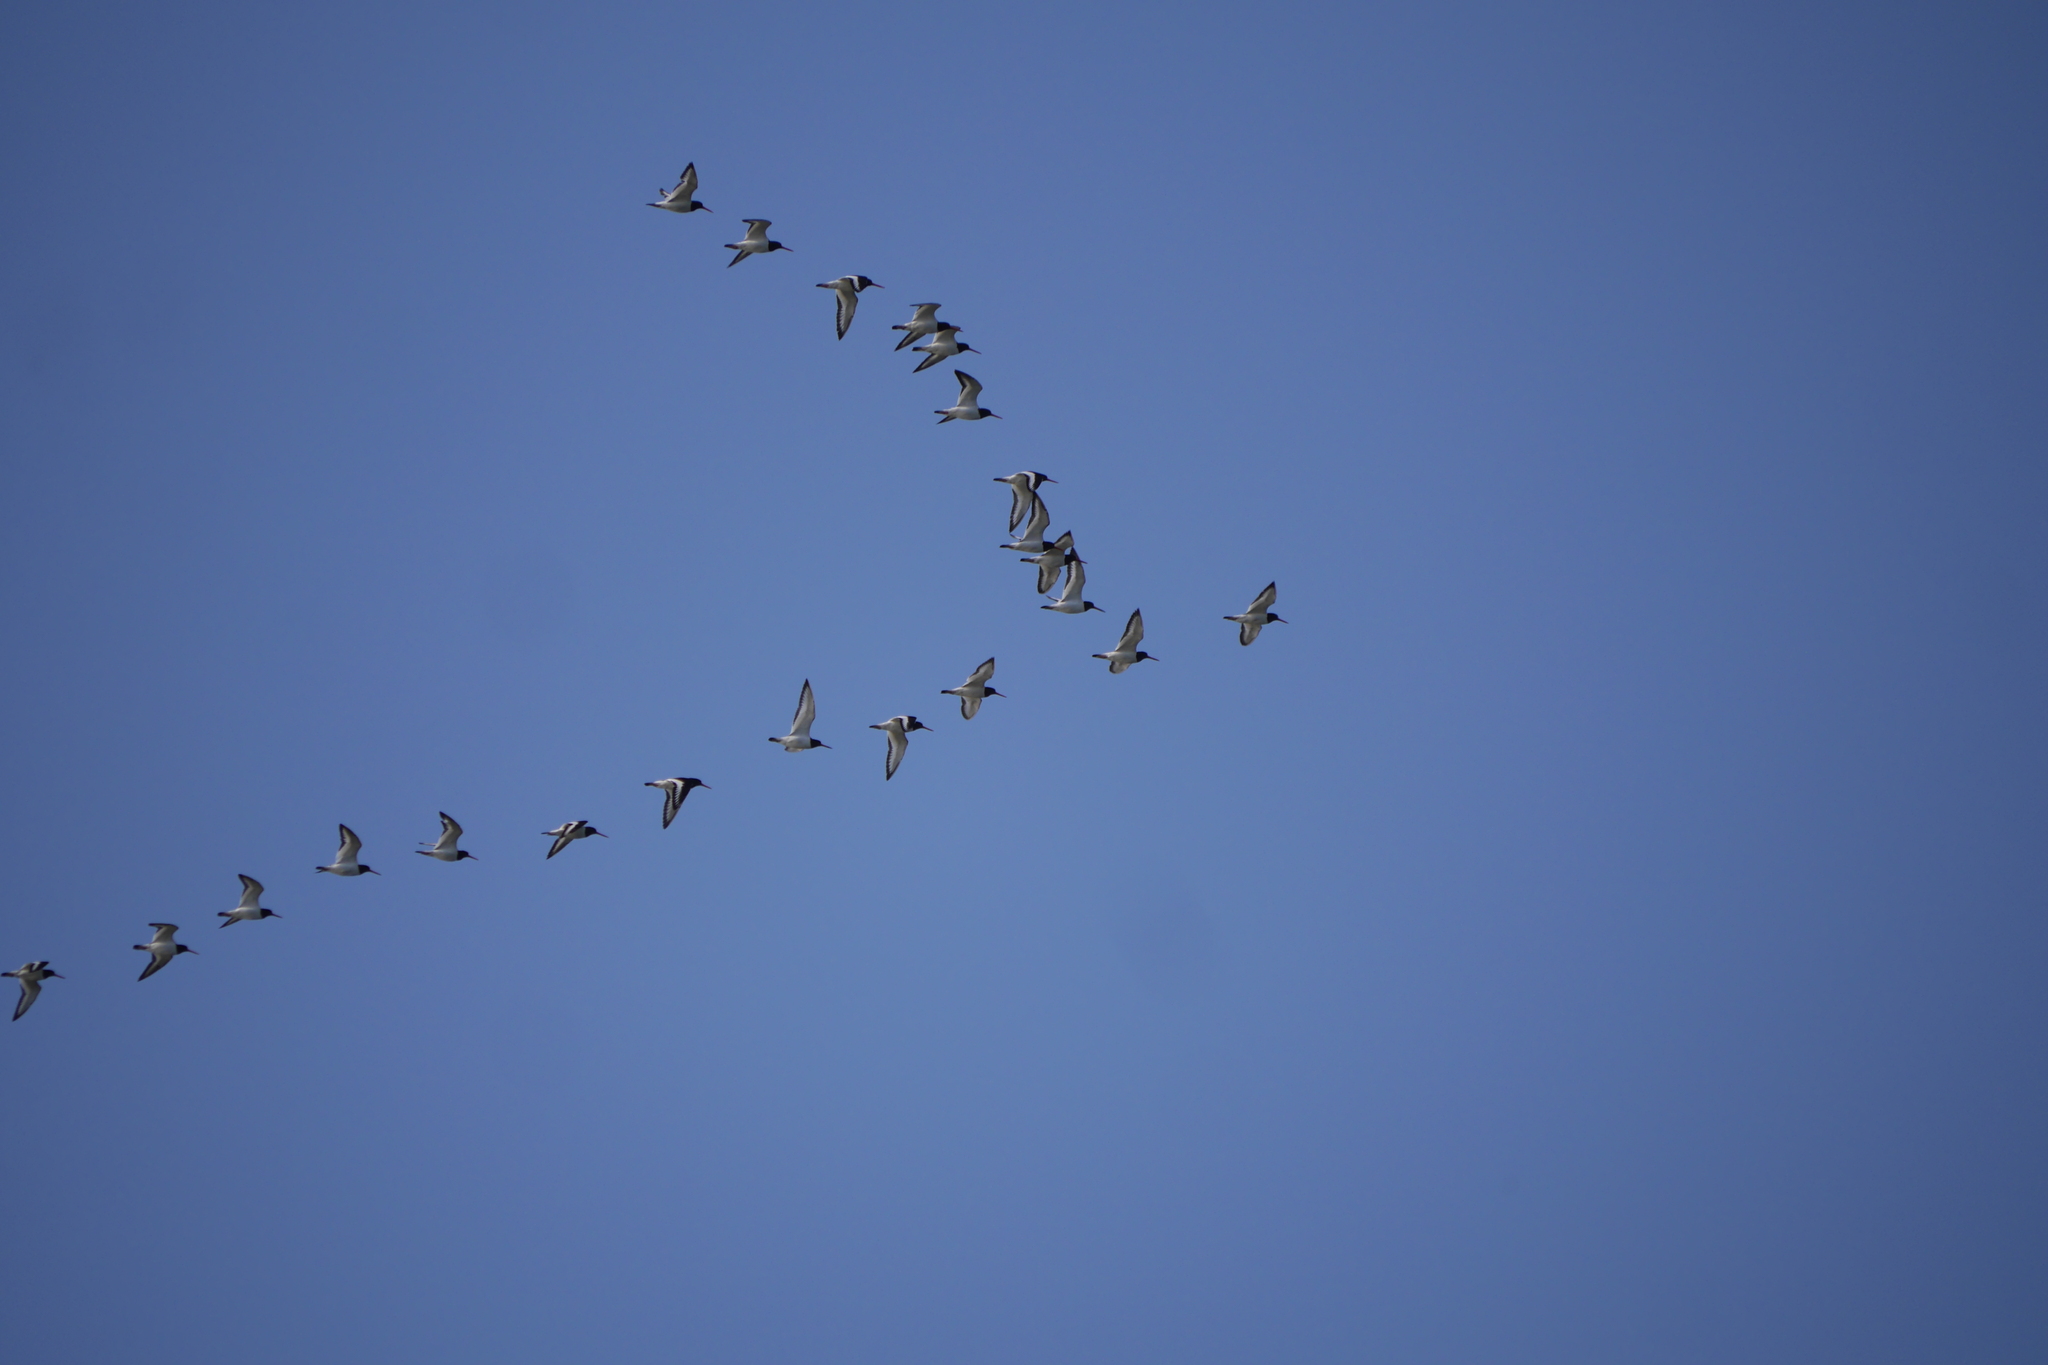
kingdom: Animalia
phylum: Chordata
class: Aves
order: Charadriiformes
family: Haematopodidae
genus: Haematopus
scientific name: Haematopus ostralegus
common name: Eurasian oystercatcher
